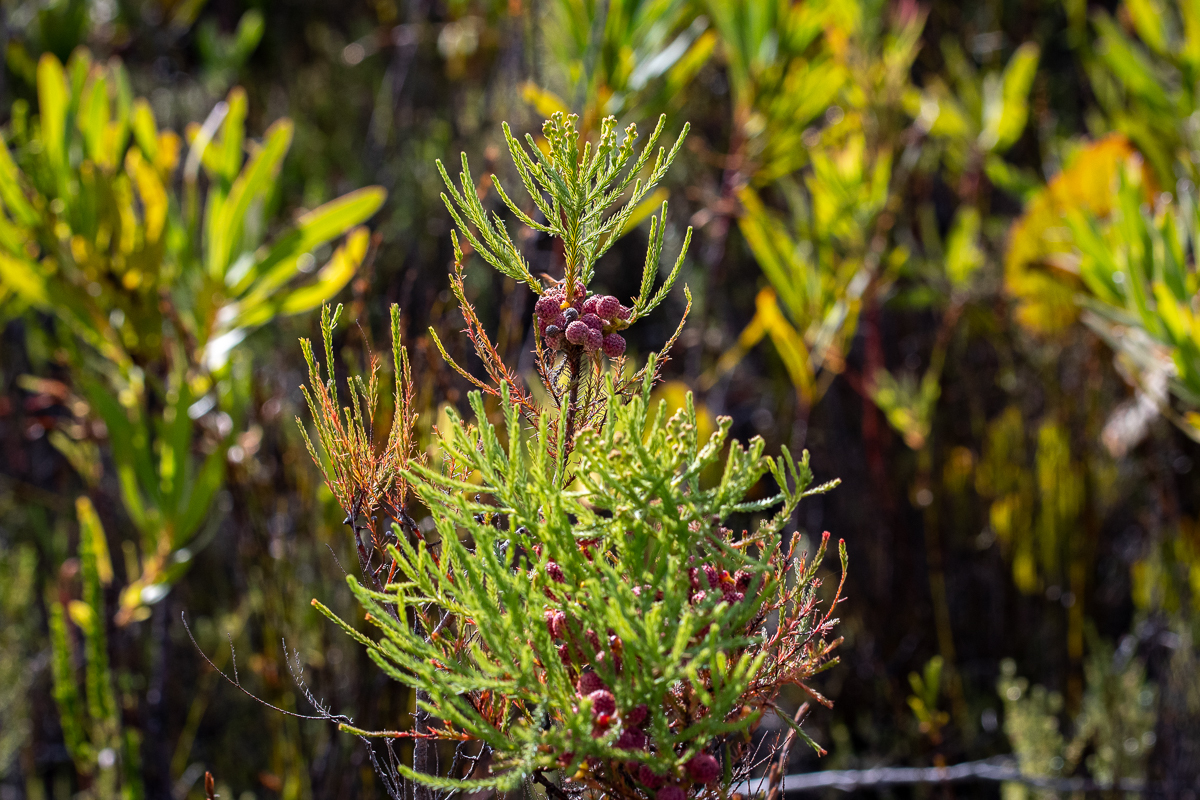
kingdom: Plantae
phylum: Tracheophyta
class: Magnoliopsida
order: Bruniales
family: Bruniaceae
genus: Berzelia
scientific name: Berzelia lanuginosa
